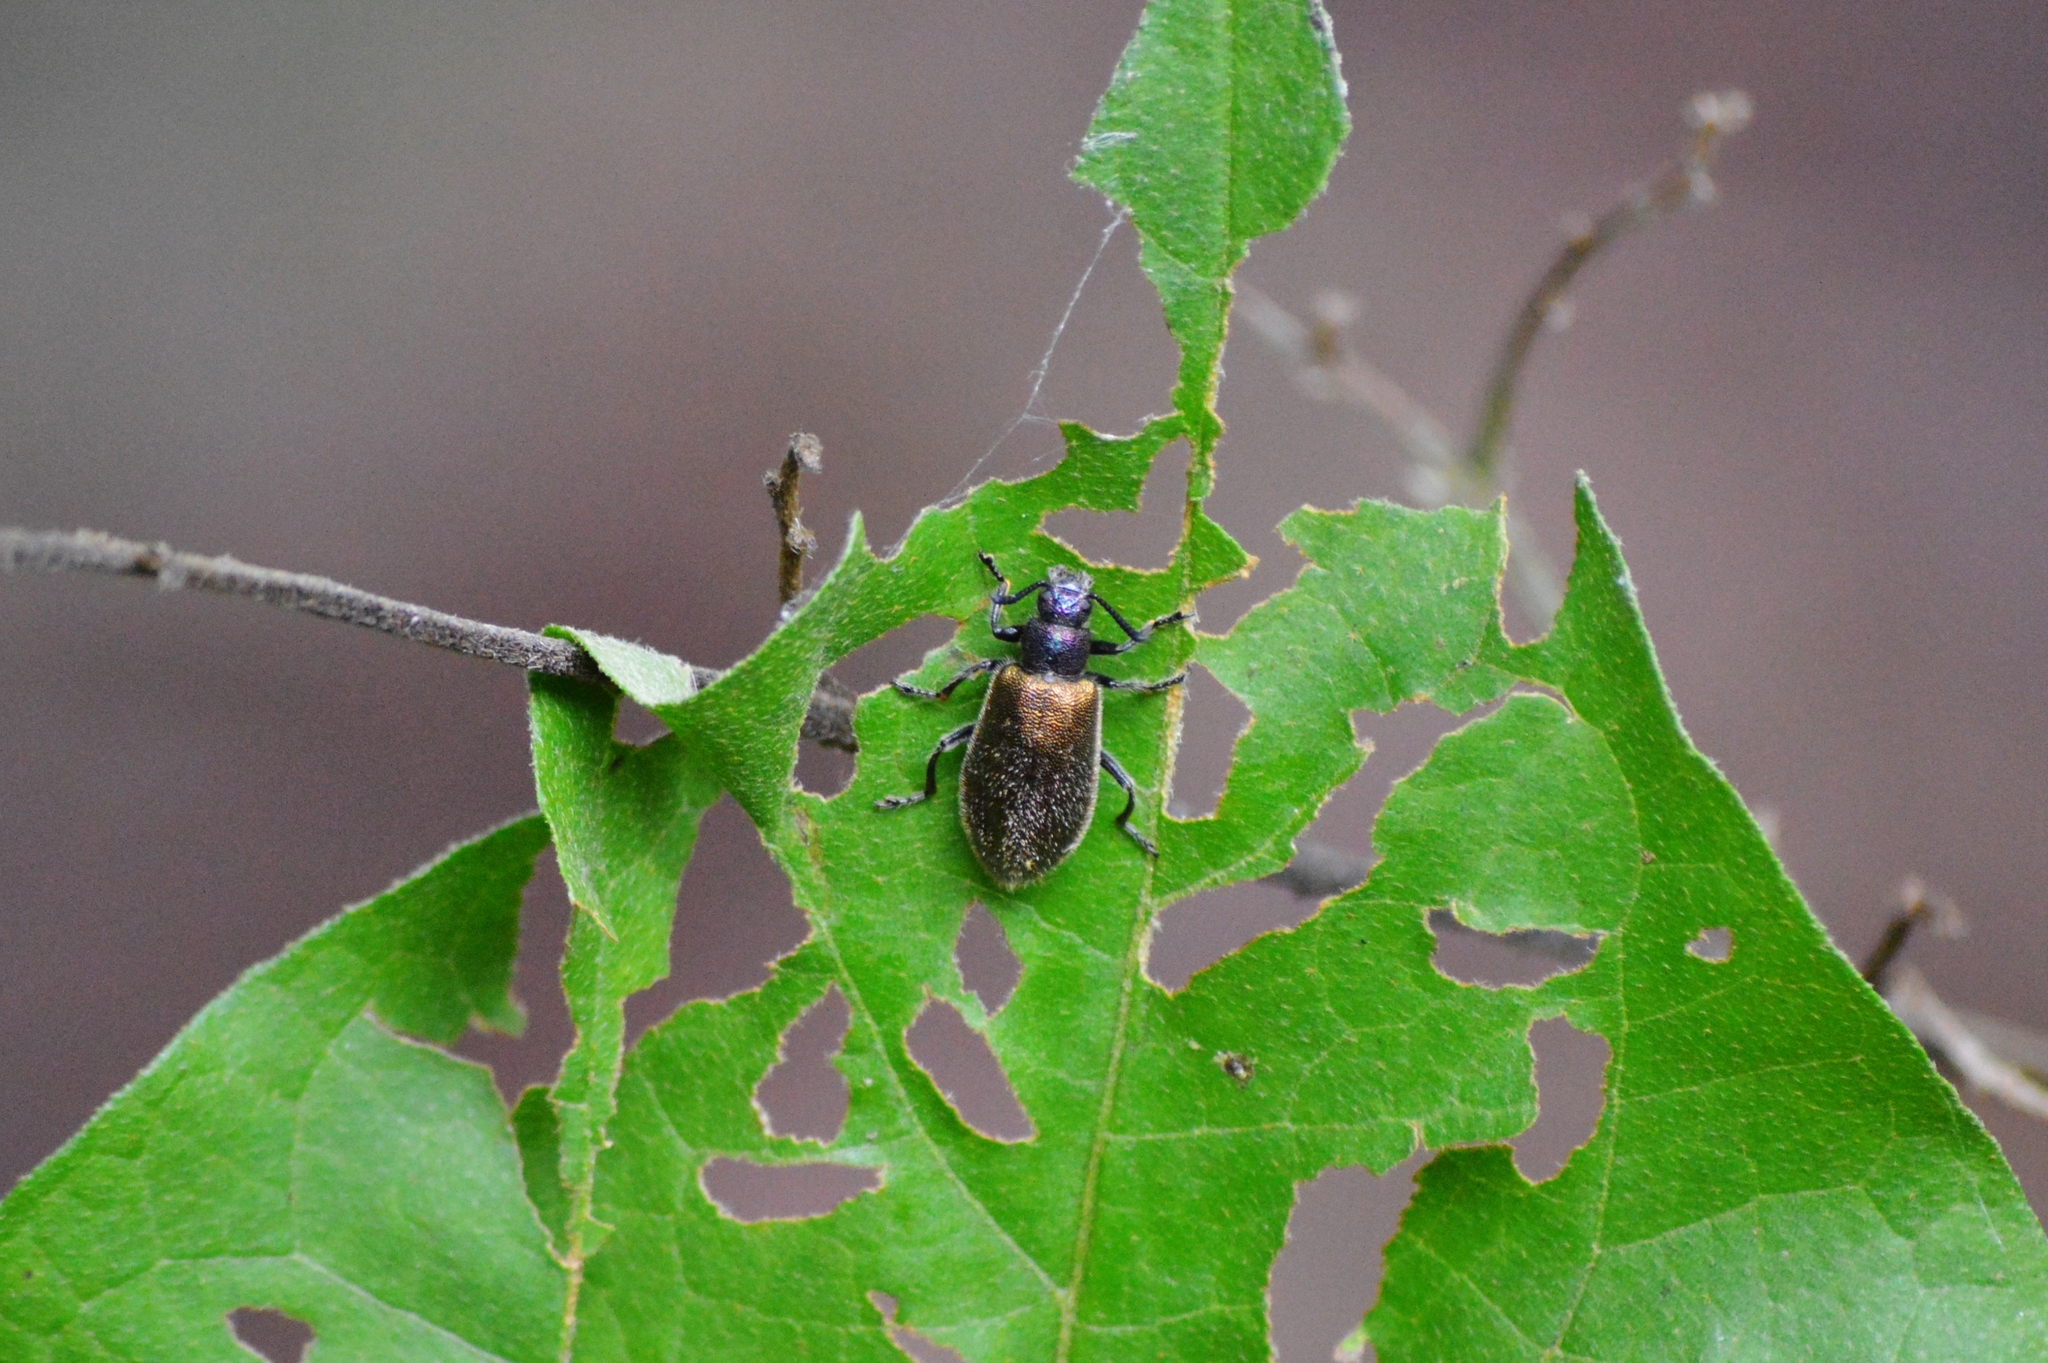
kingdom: Animalia
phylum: Arthropoda
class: Insecta
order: Coleoptera
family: Tenebrionidae
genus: Lagria
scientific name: Lagria villosa
